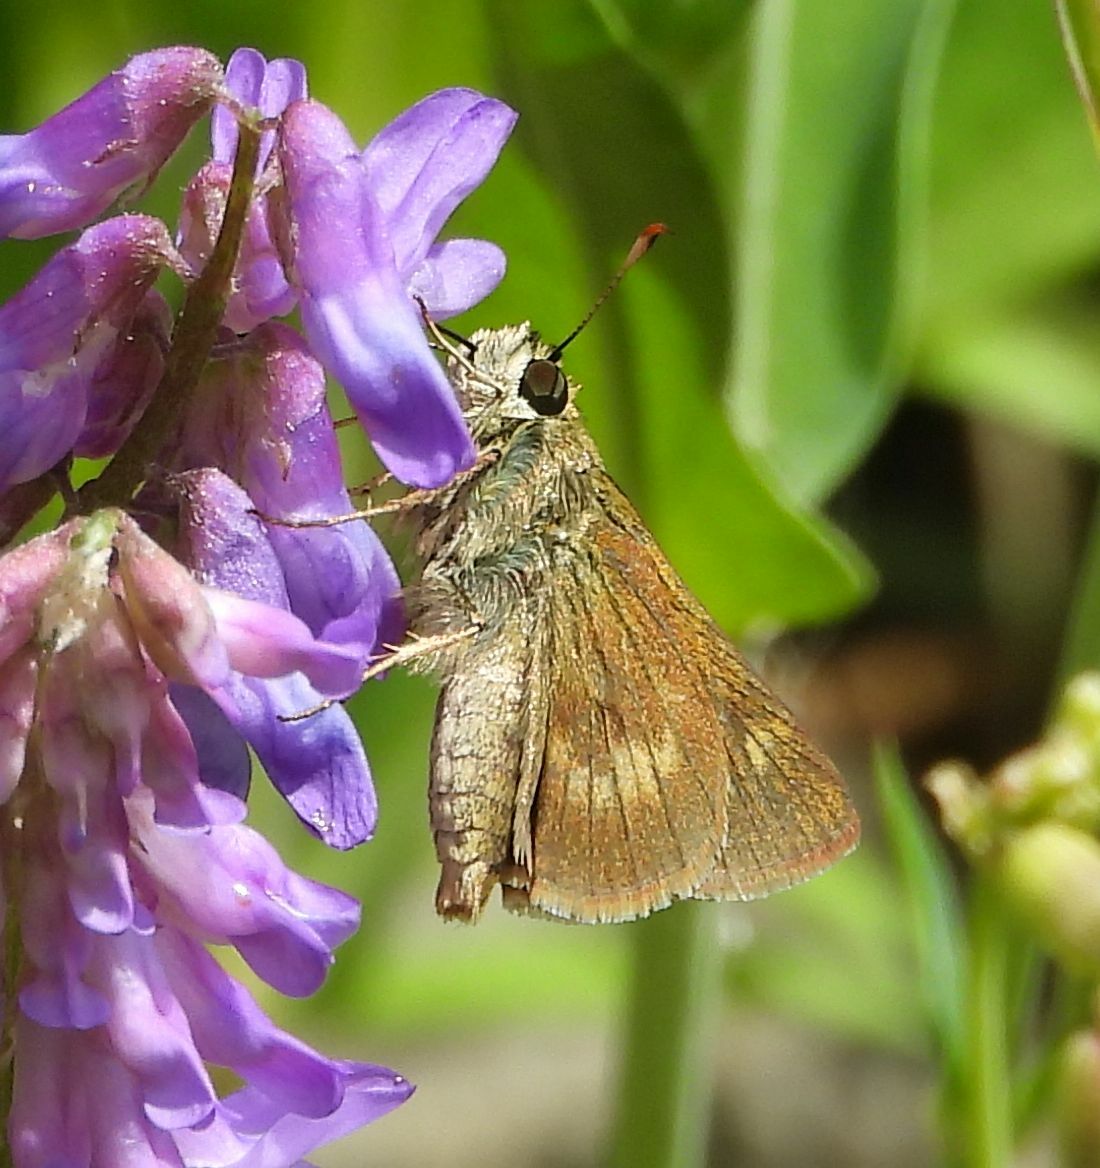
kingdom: Animalia
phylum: Arthropoda
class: Insecta
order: Lepidoptera
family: Hesperiidae
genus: Polites
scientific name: Polites egeremet
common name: Northern broken-dash
